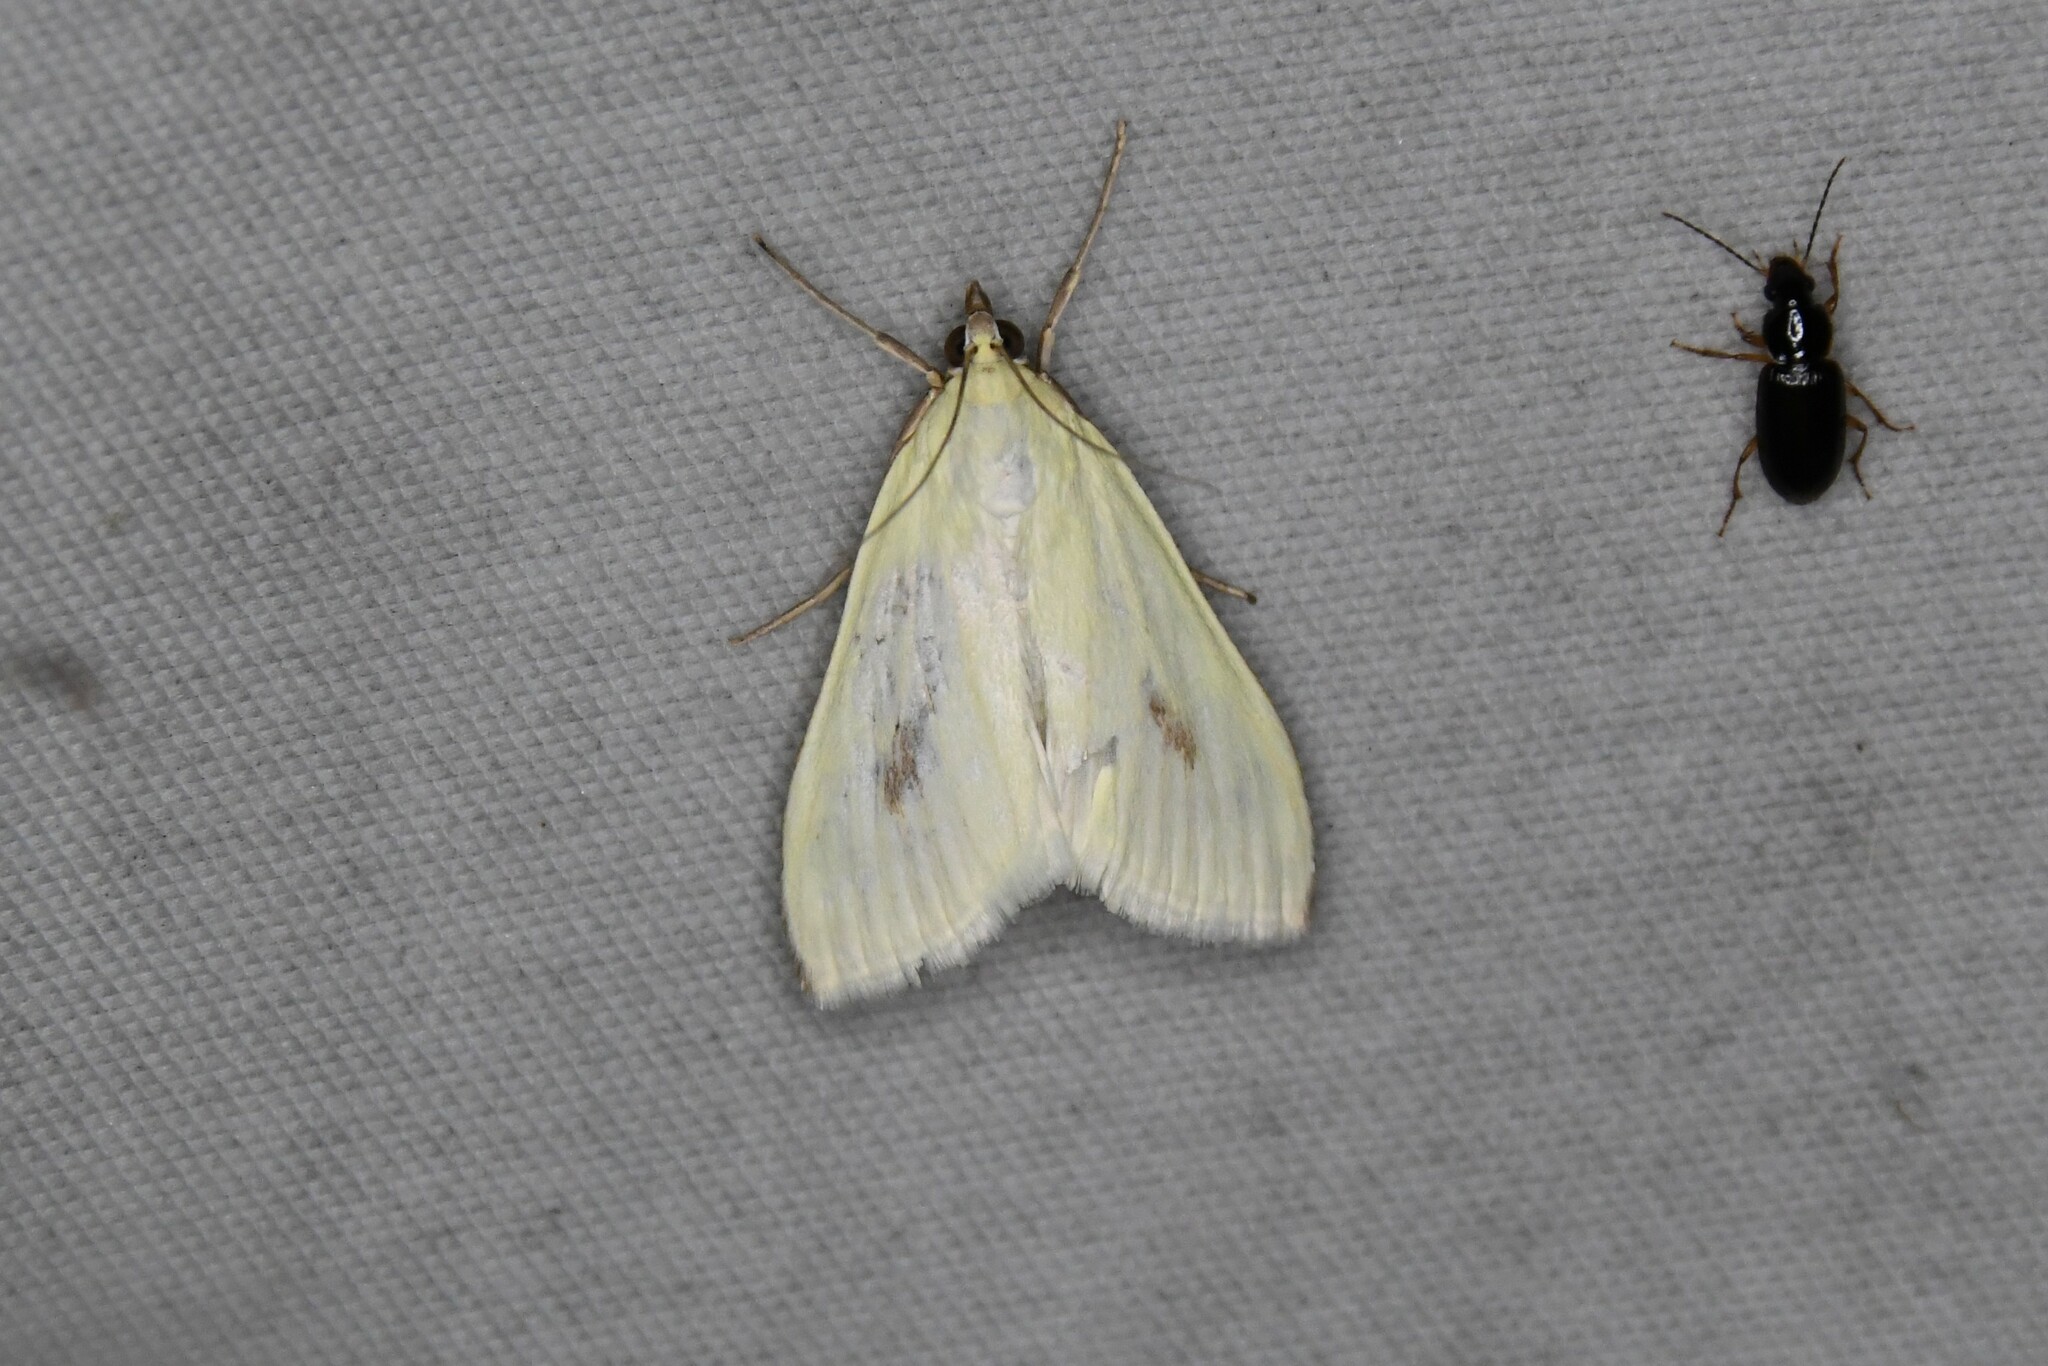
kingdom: Animalia
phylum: Arthropoda
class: Insecta
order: Lepidoptera
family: Crambidae
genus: Sitochroa
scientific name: Sitochroa palealis
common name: Greenish-yellow sitochroa moth
